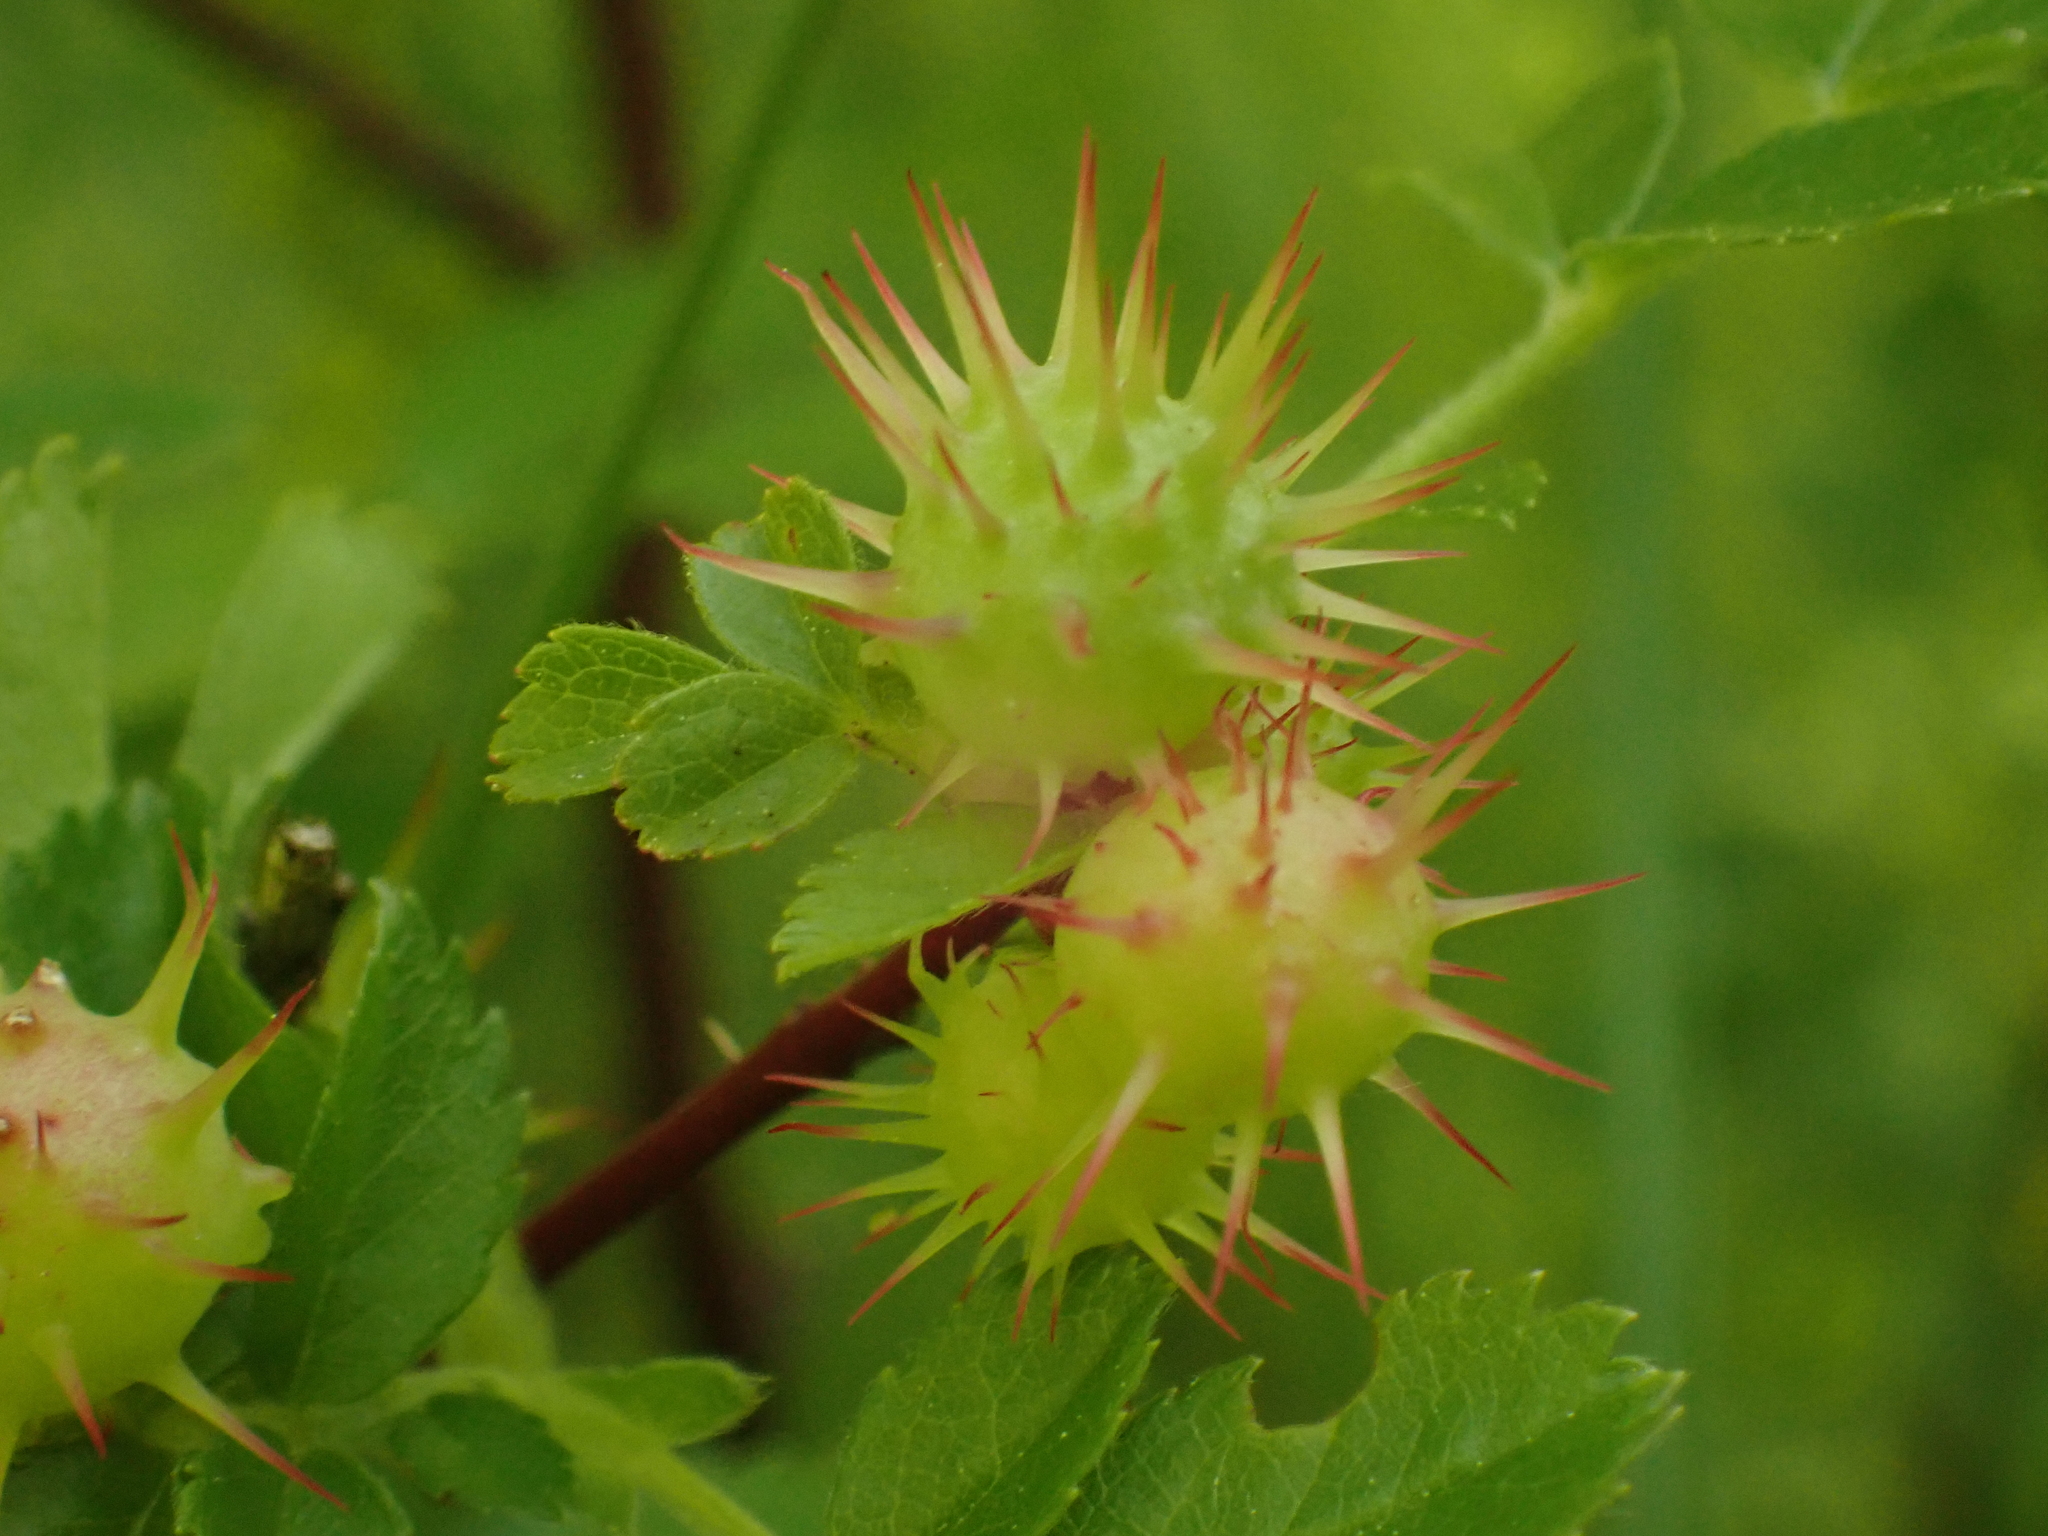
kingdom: Animalia
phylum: Arthropoda
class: Insecta
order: Hymenoptera
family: Cynipidae
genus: Diplolepis
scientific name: Diplolepis polita
